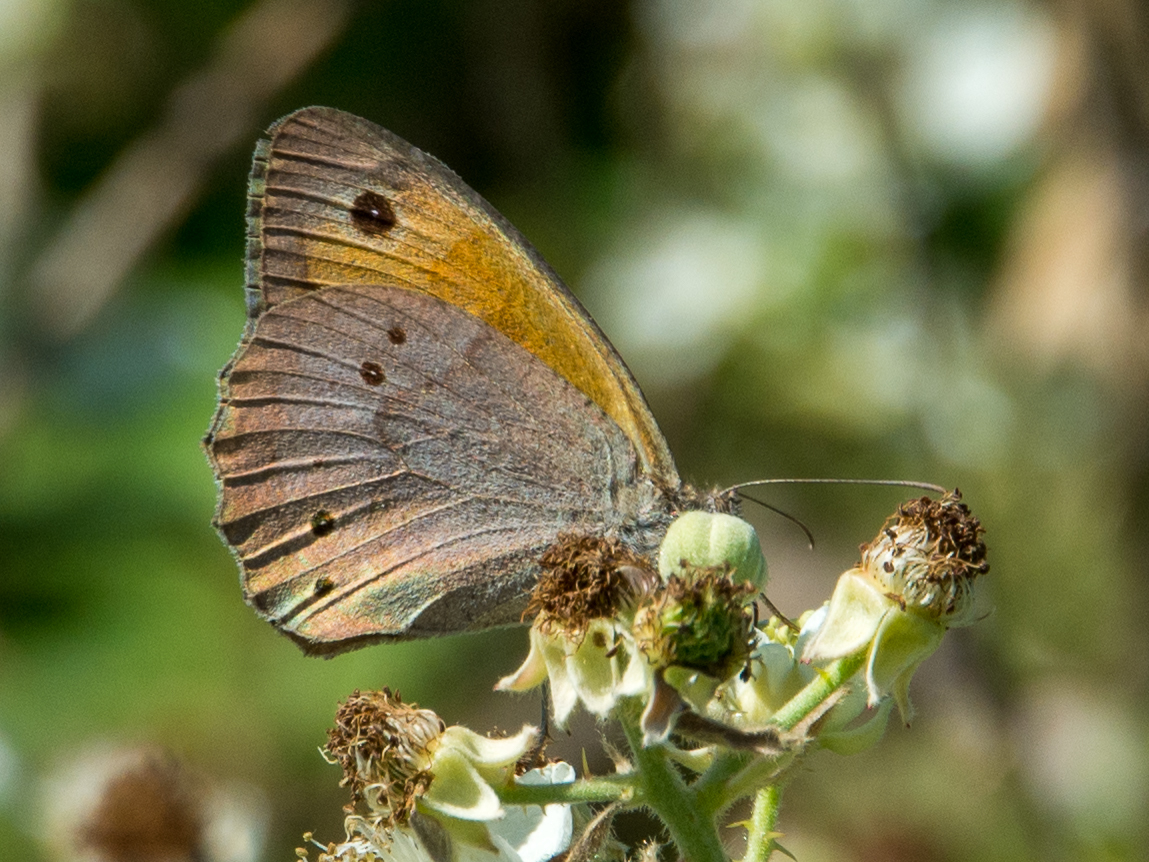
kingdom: Animalia
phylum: Arthropoda
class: Insecta
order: Lepidoptera
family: Nymphalidae
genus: Maniola
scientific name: Maniola jurtina
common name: Meadow brown
